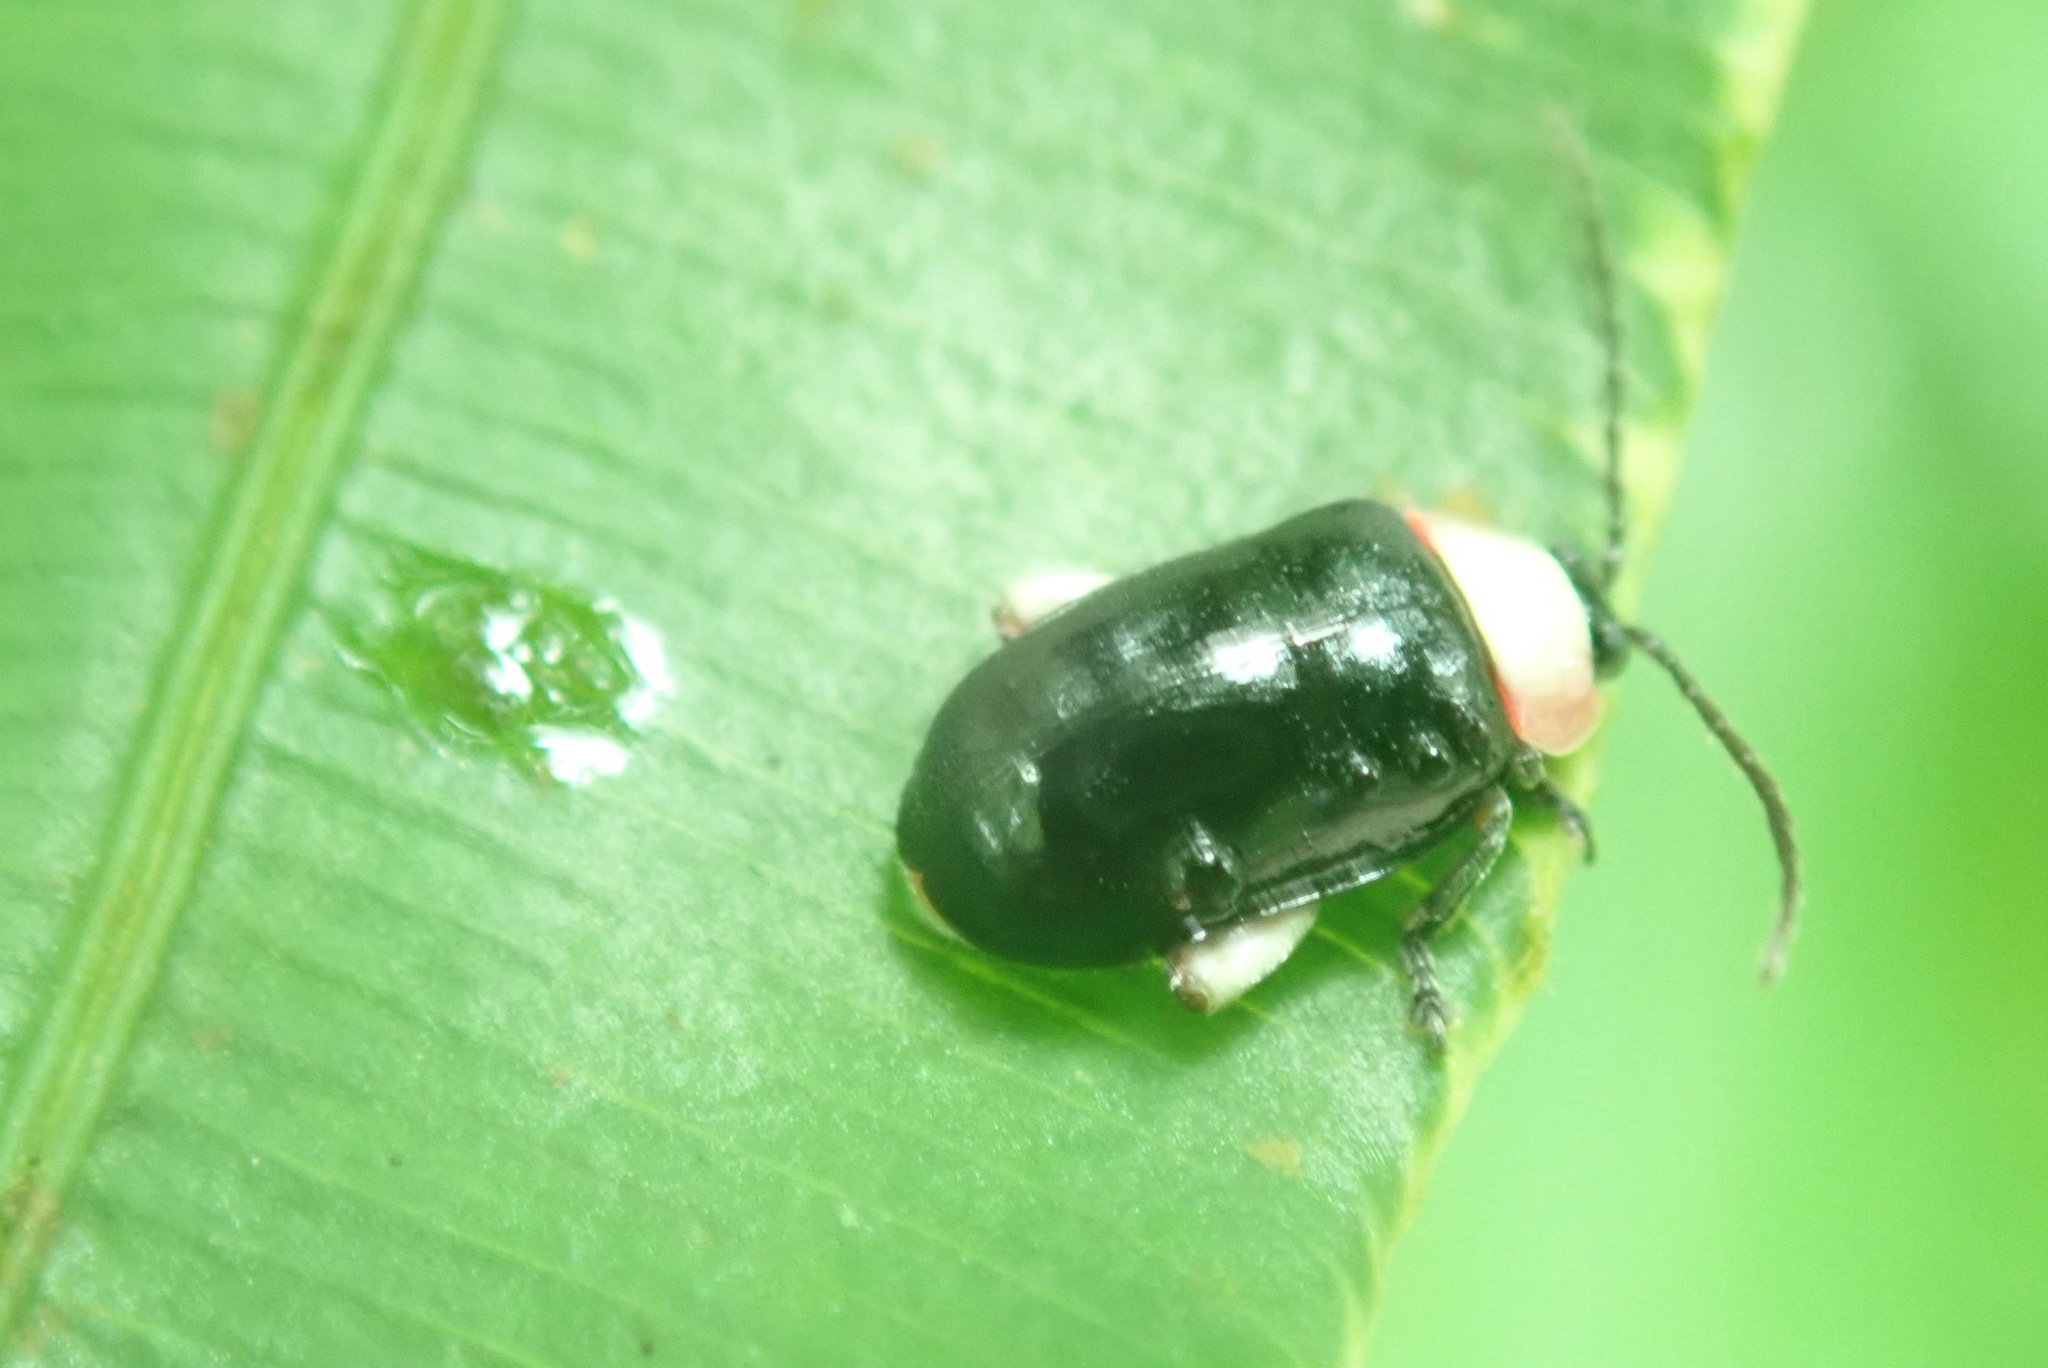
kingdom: Animalia
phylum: Arthropoda
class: Insecta
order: Coleoptera
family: Chrysomelidae
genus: Asphaera
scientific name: Asphaera
